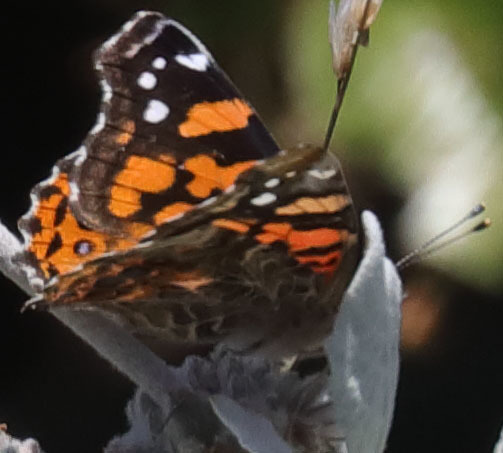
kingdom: Animalia
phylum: Arthropoda
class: Insecta
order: Lepidoptera
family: Nymphalidae
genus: Vanessa
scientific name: Vanessa annabella
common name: West coast lady
